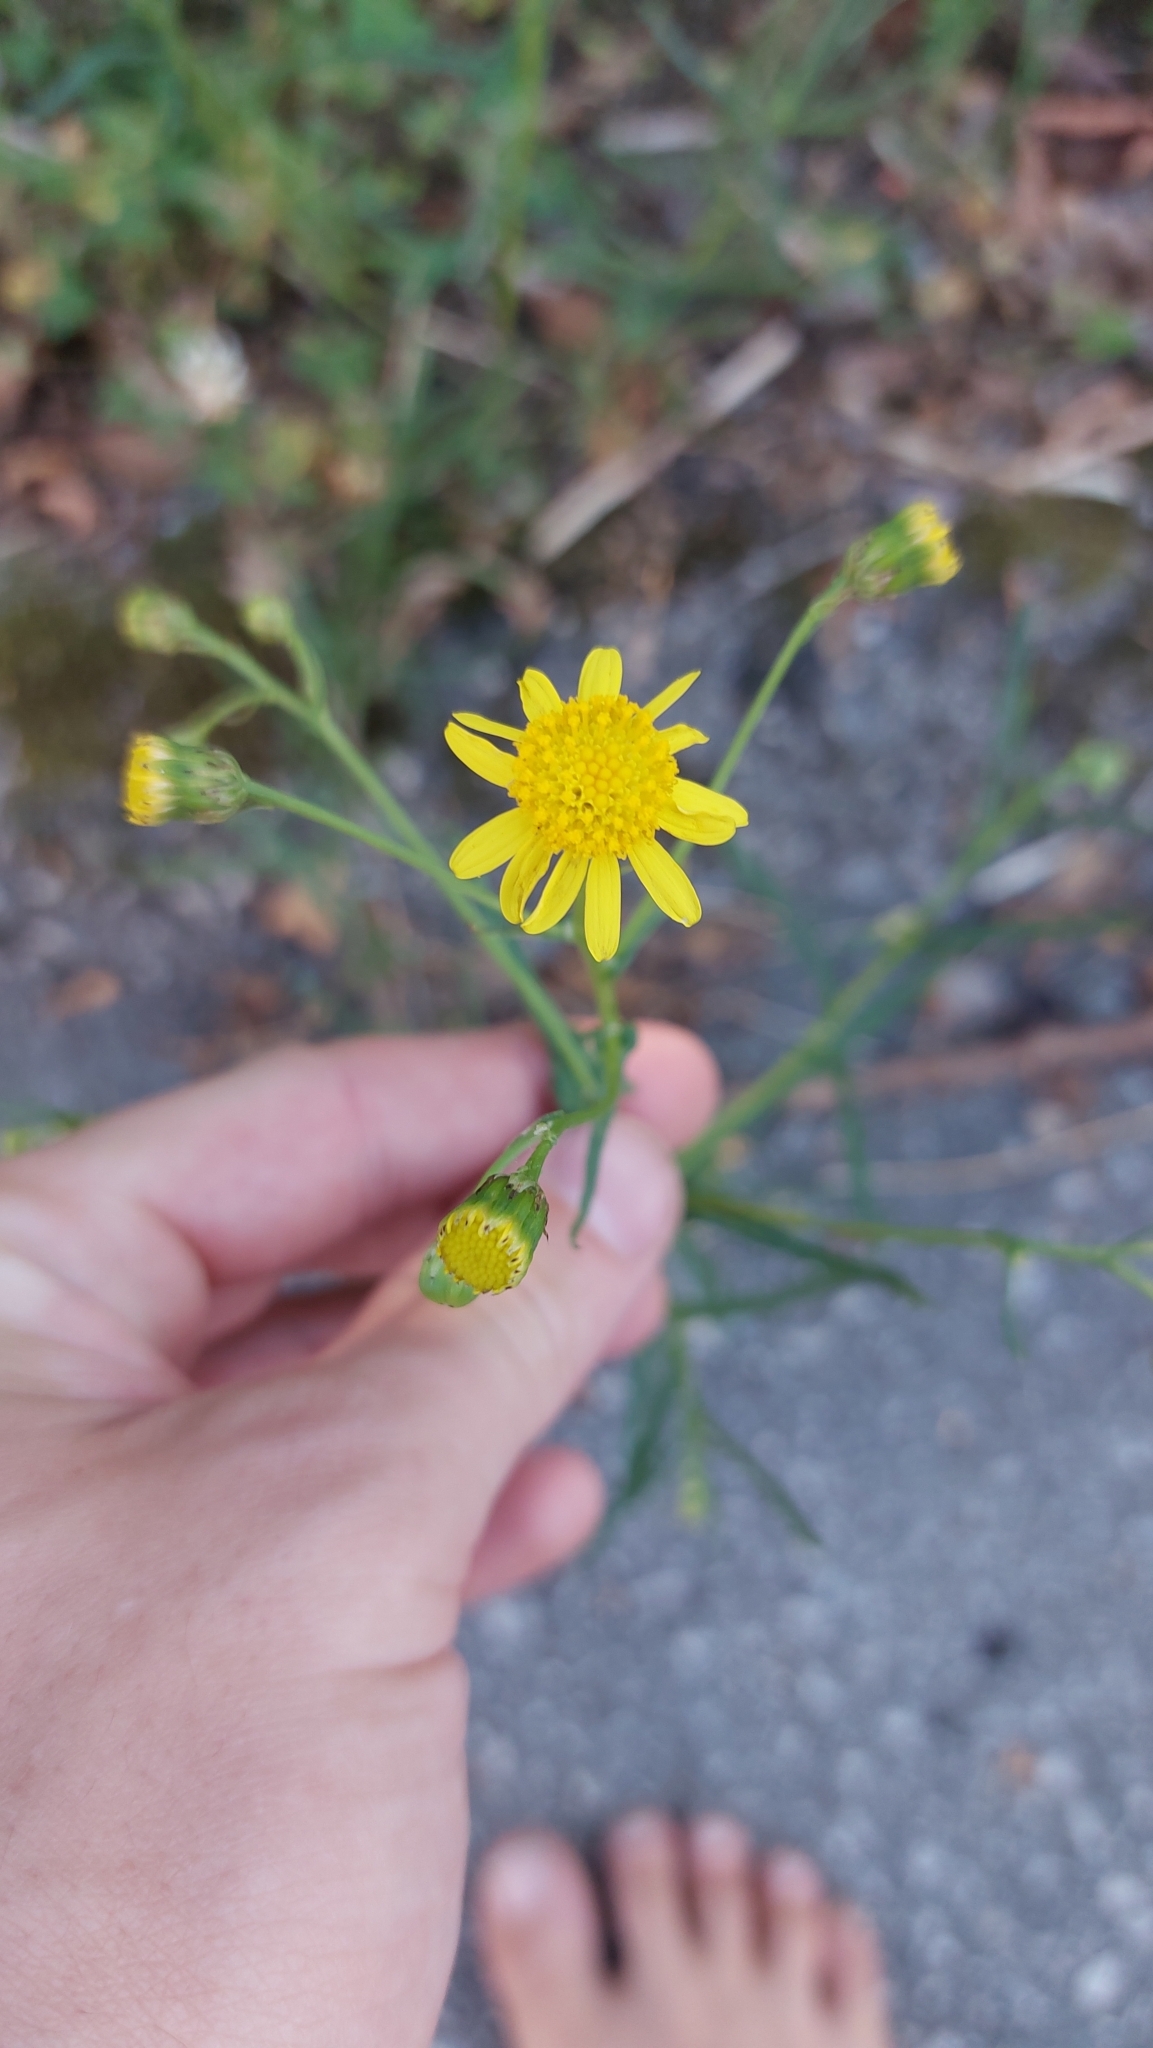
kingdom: Plantae
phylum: Tracheophyta
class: Magnoliopsida
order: Asterales
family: Asteraceae
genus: Senecio
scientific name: Senecio inaequidens
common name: Narrow-leaved ragwort
